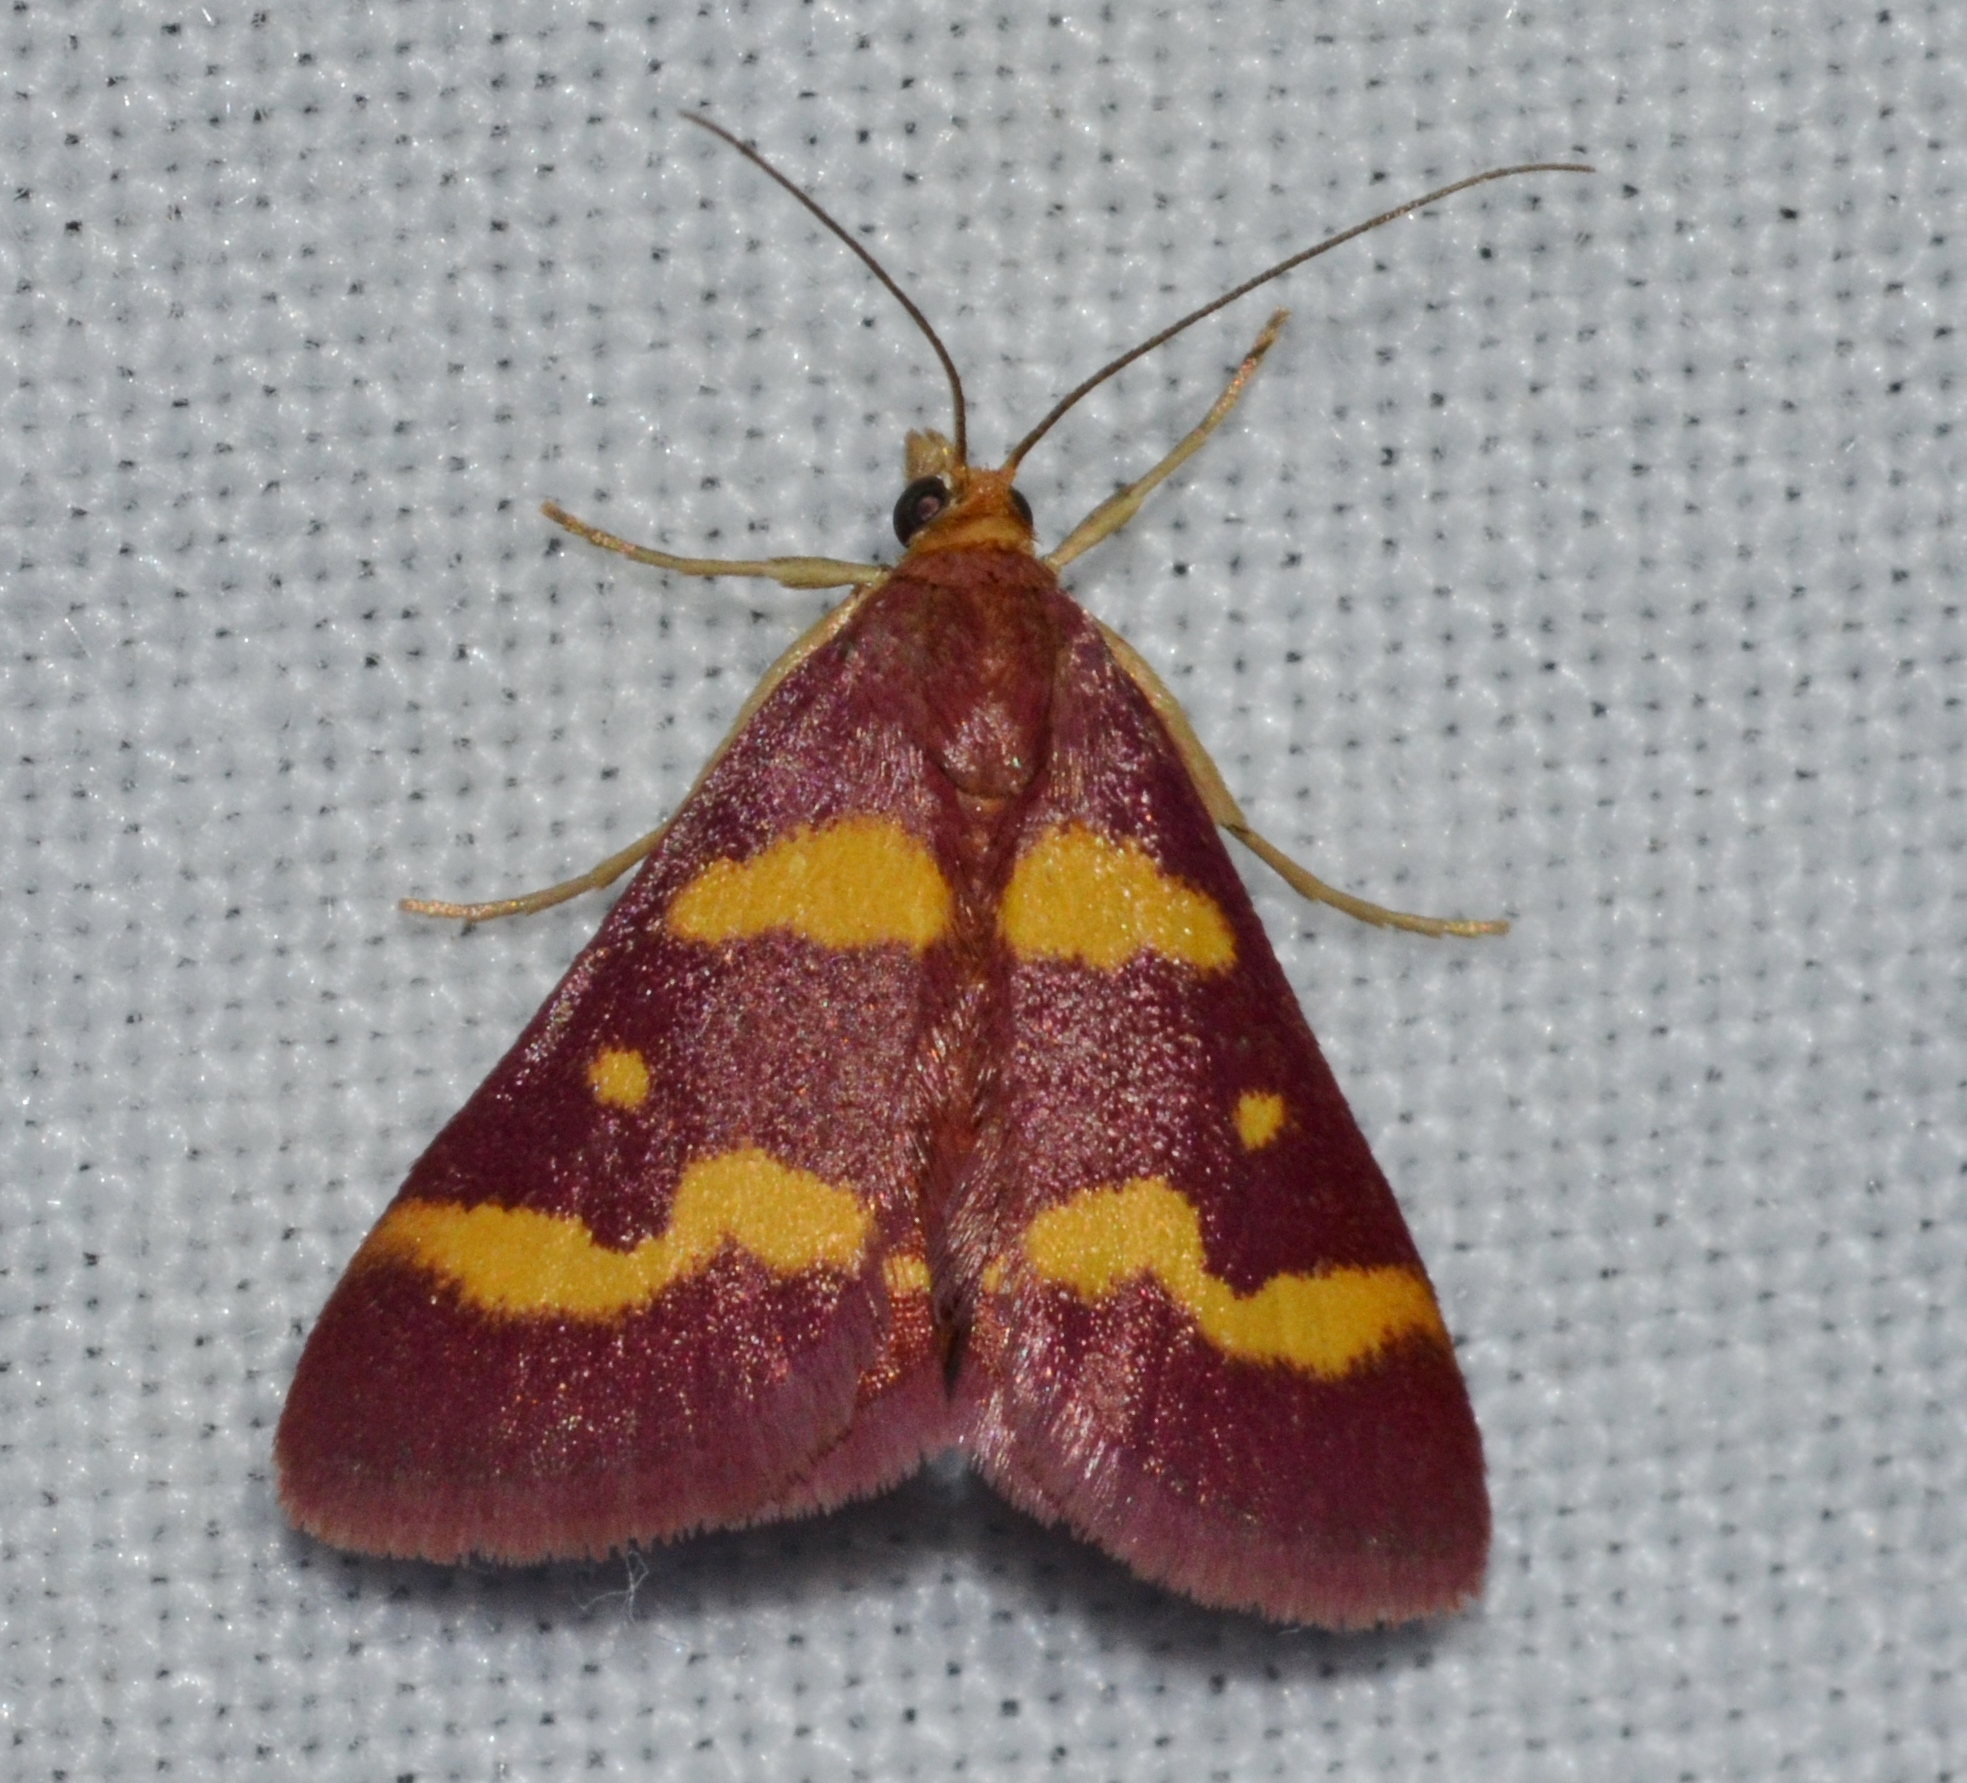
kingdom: Animalia
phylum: Arthropoda
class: Insecta
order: Lepidoptera
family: Crambidae
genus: Pyrausta
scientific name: Pyrausta tyralis
